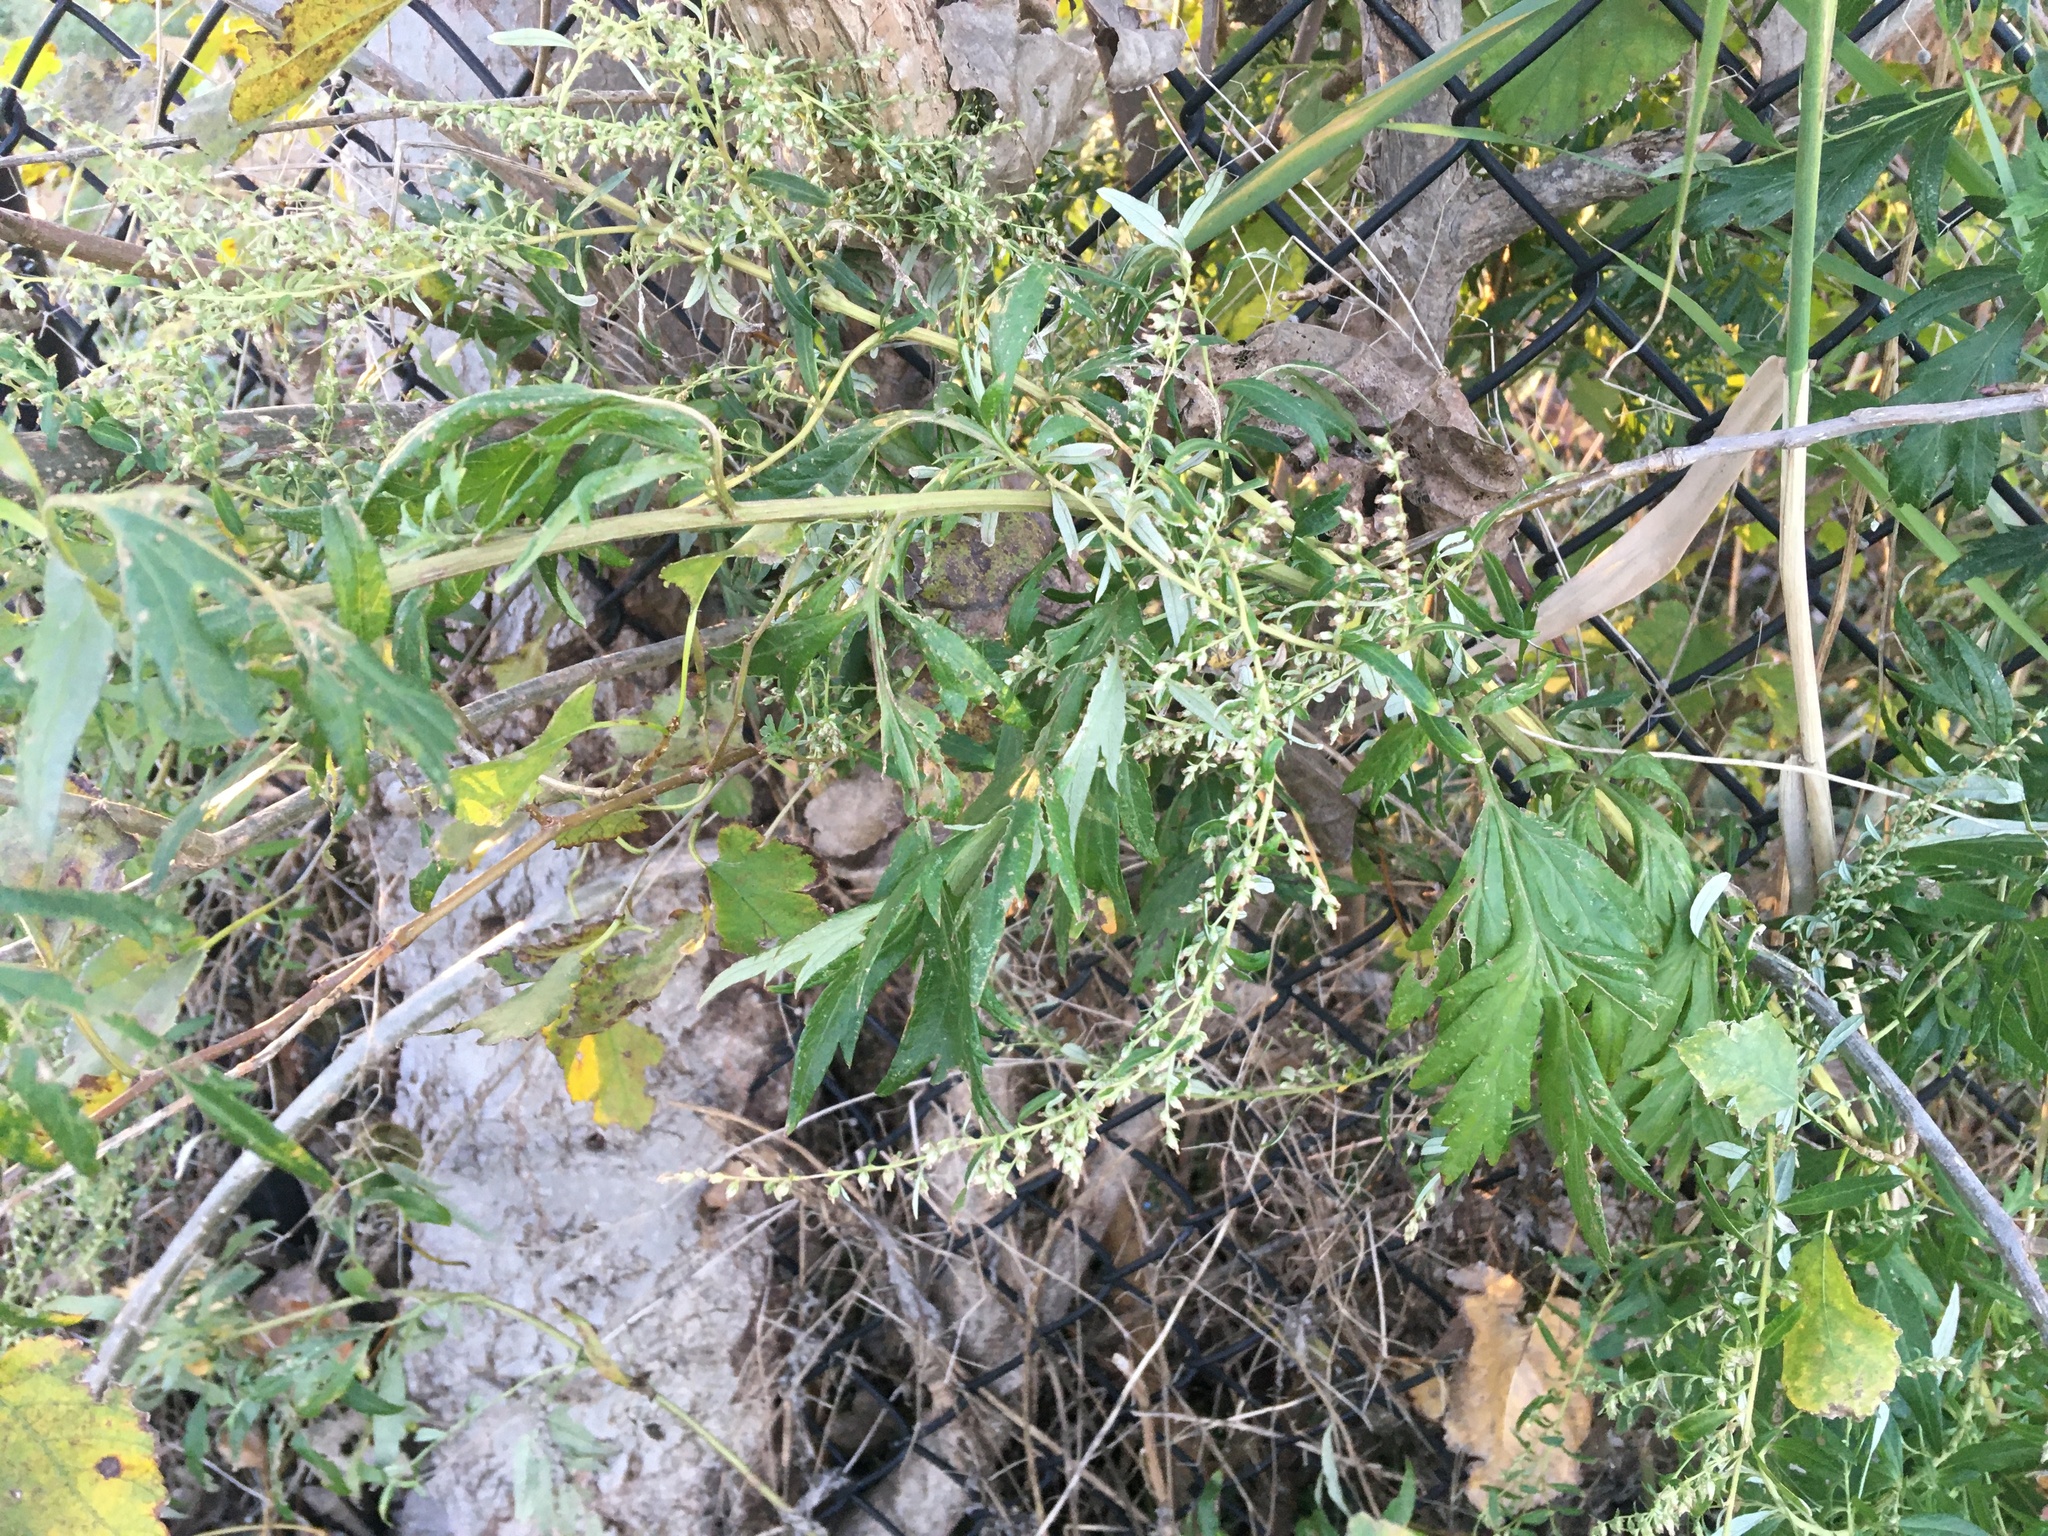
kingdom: Plantae
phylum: Tracheophyta
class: Magnoliopsida
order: Asterales
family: Asteraceae
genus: Artemisia
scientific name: Artemisia vulgaris
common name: Mugwort
